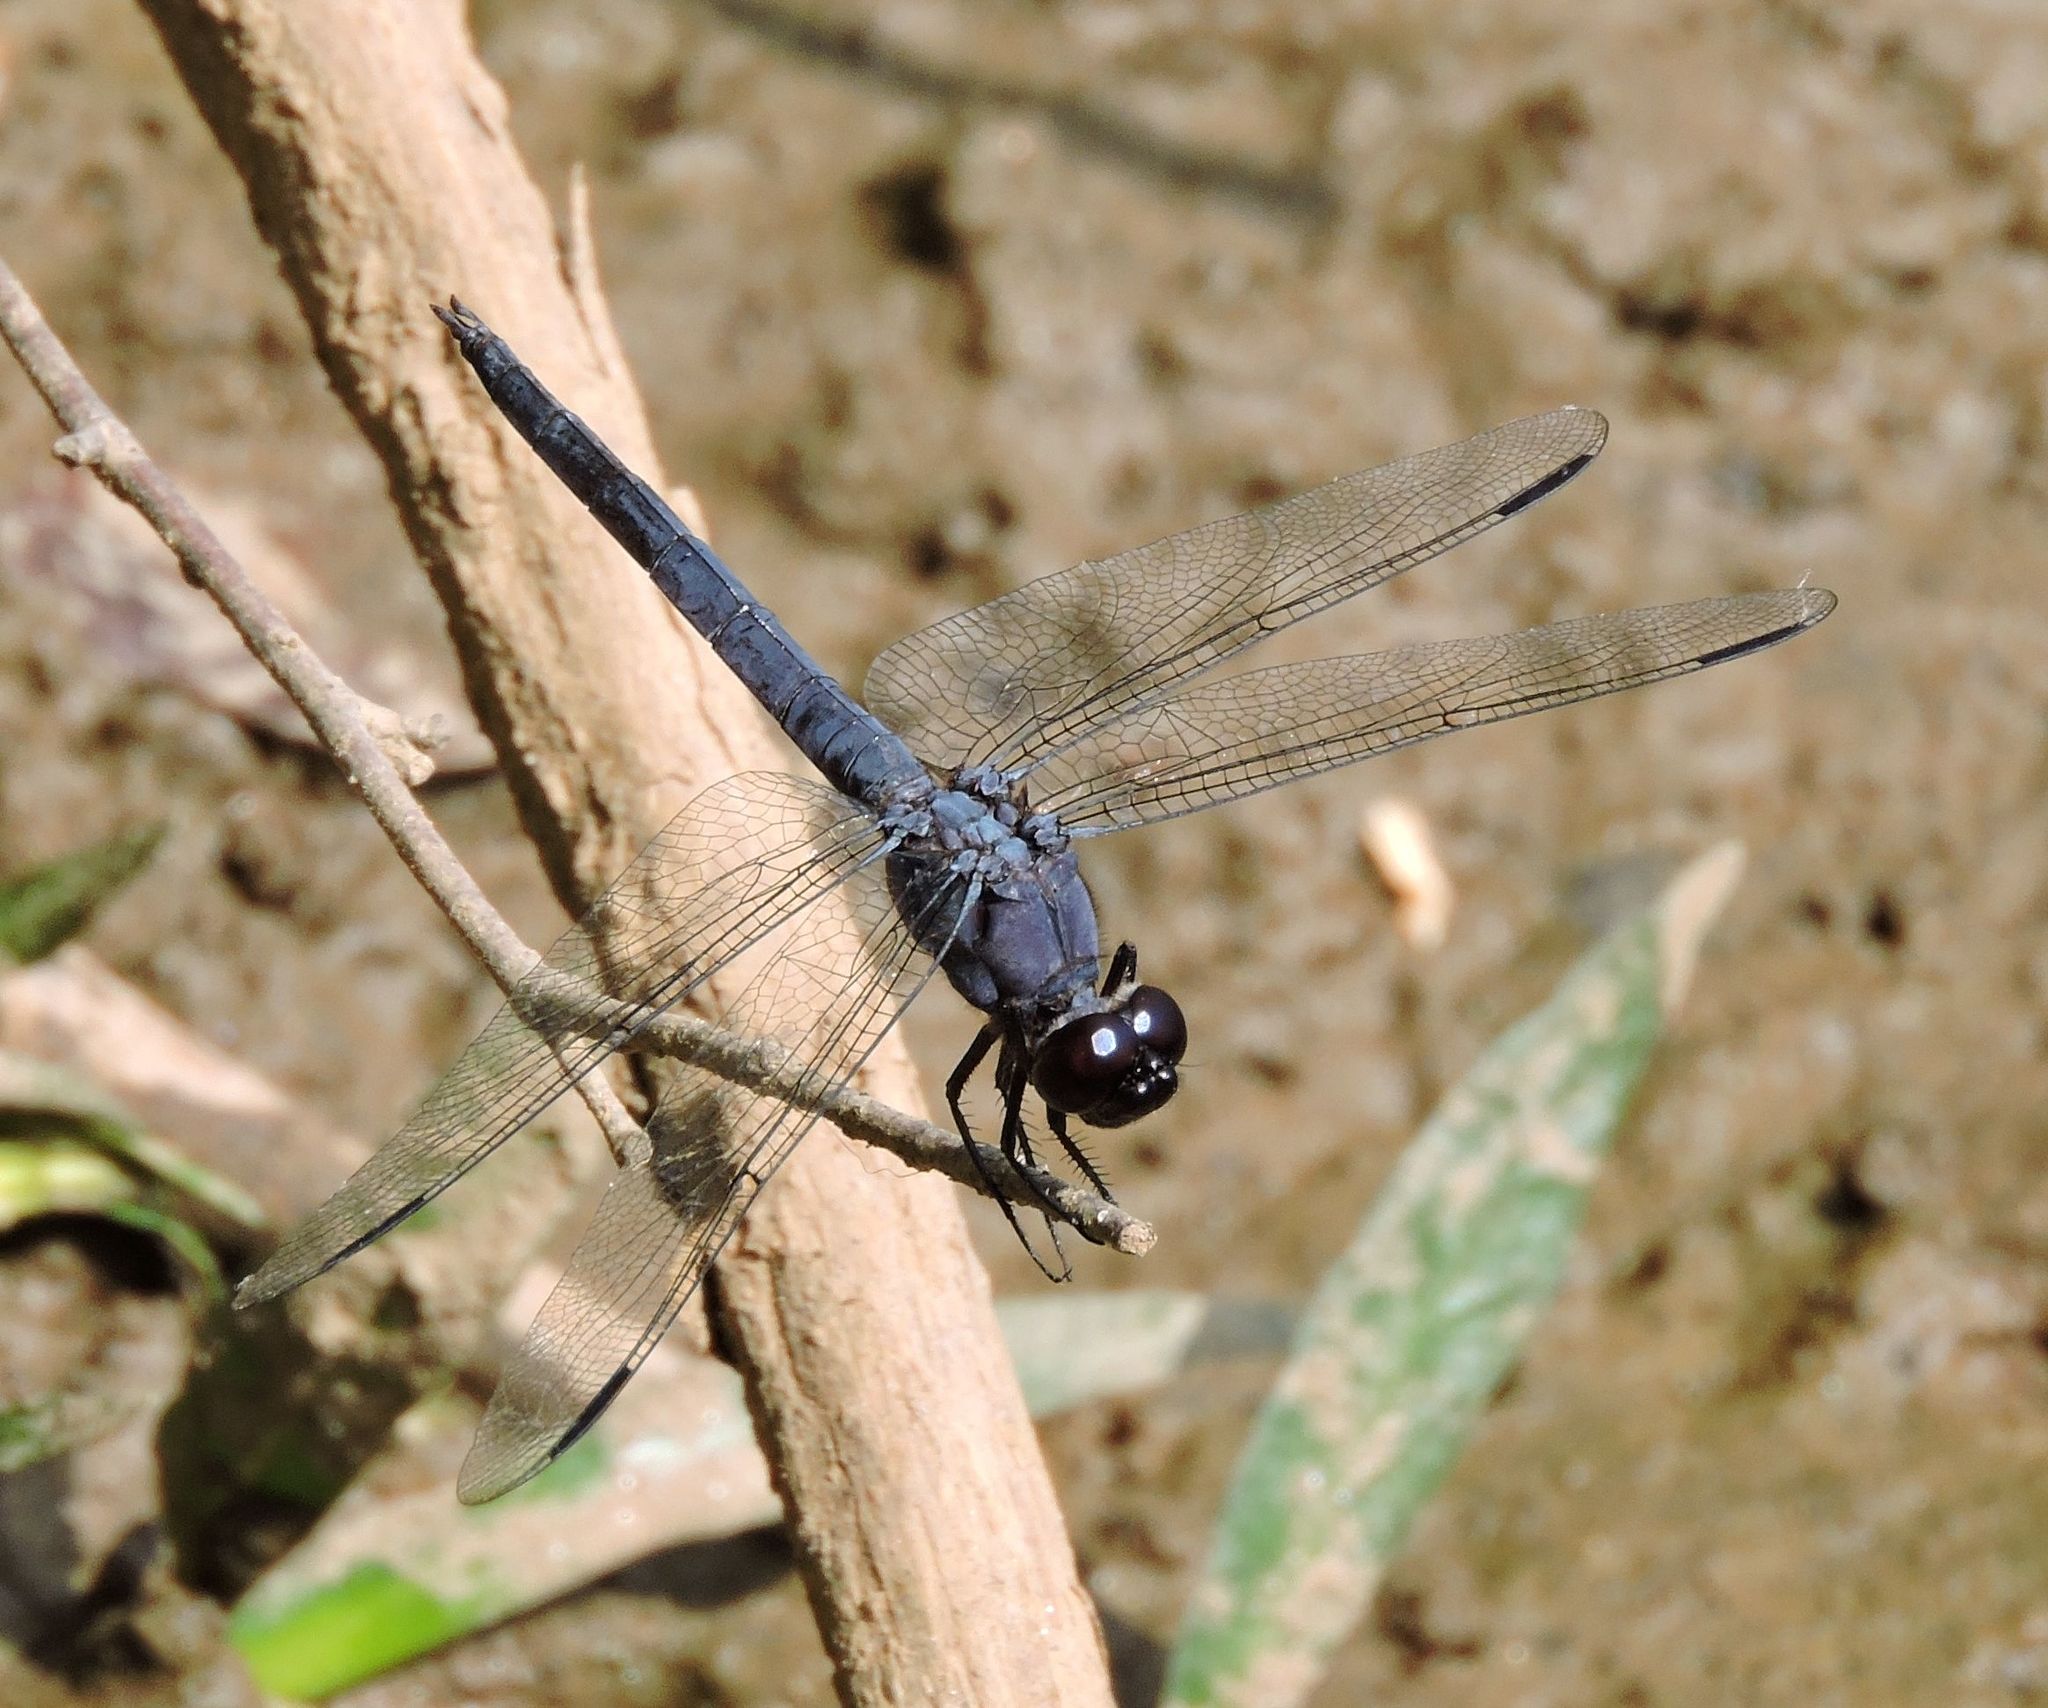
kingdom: Animalia
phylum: Arthropoda
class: Insecta
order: Odonata
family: Libellulidae
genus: Libellula
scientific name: Libellula incesta
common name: Slaty skimmer
